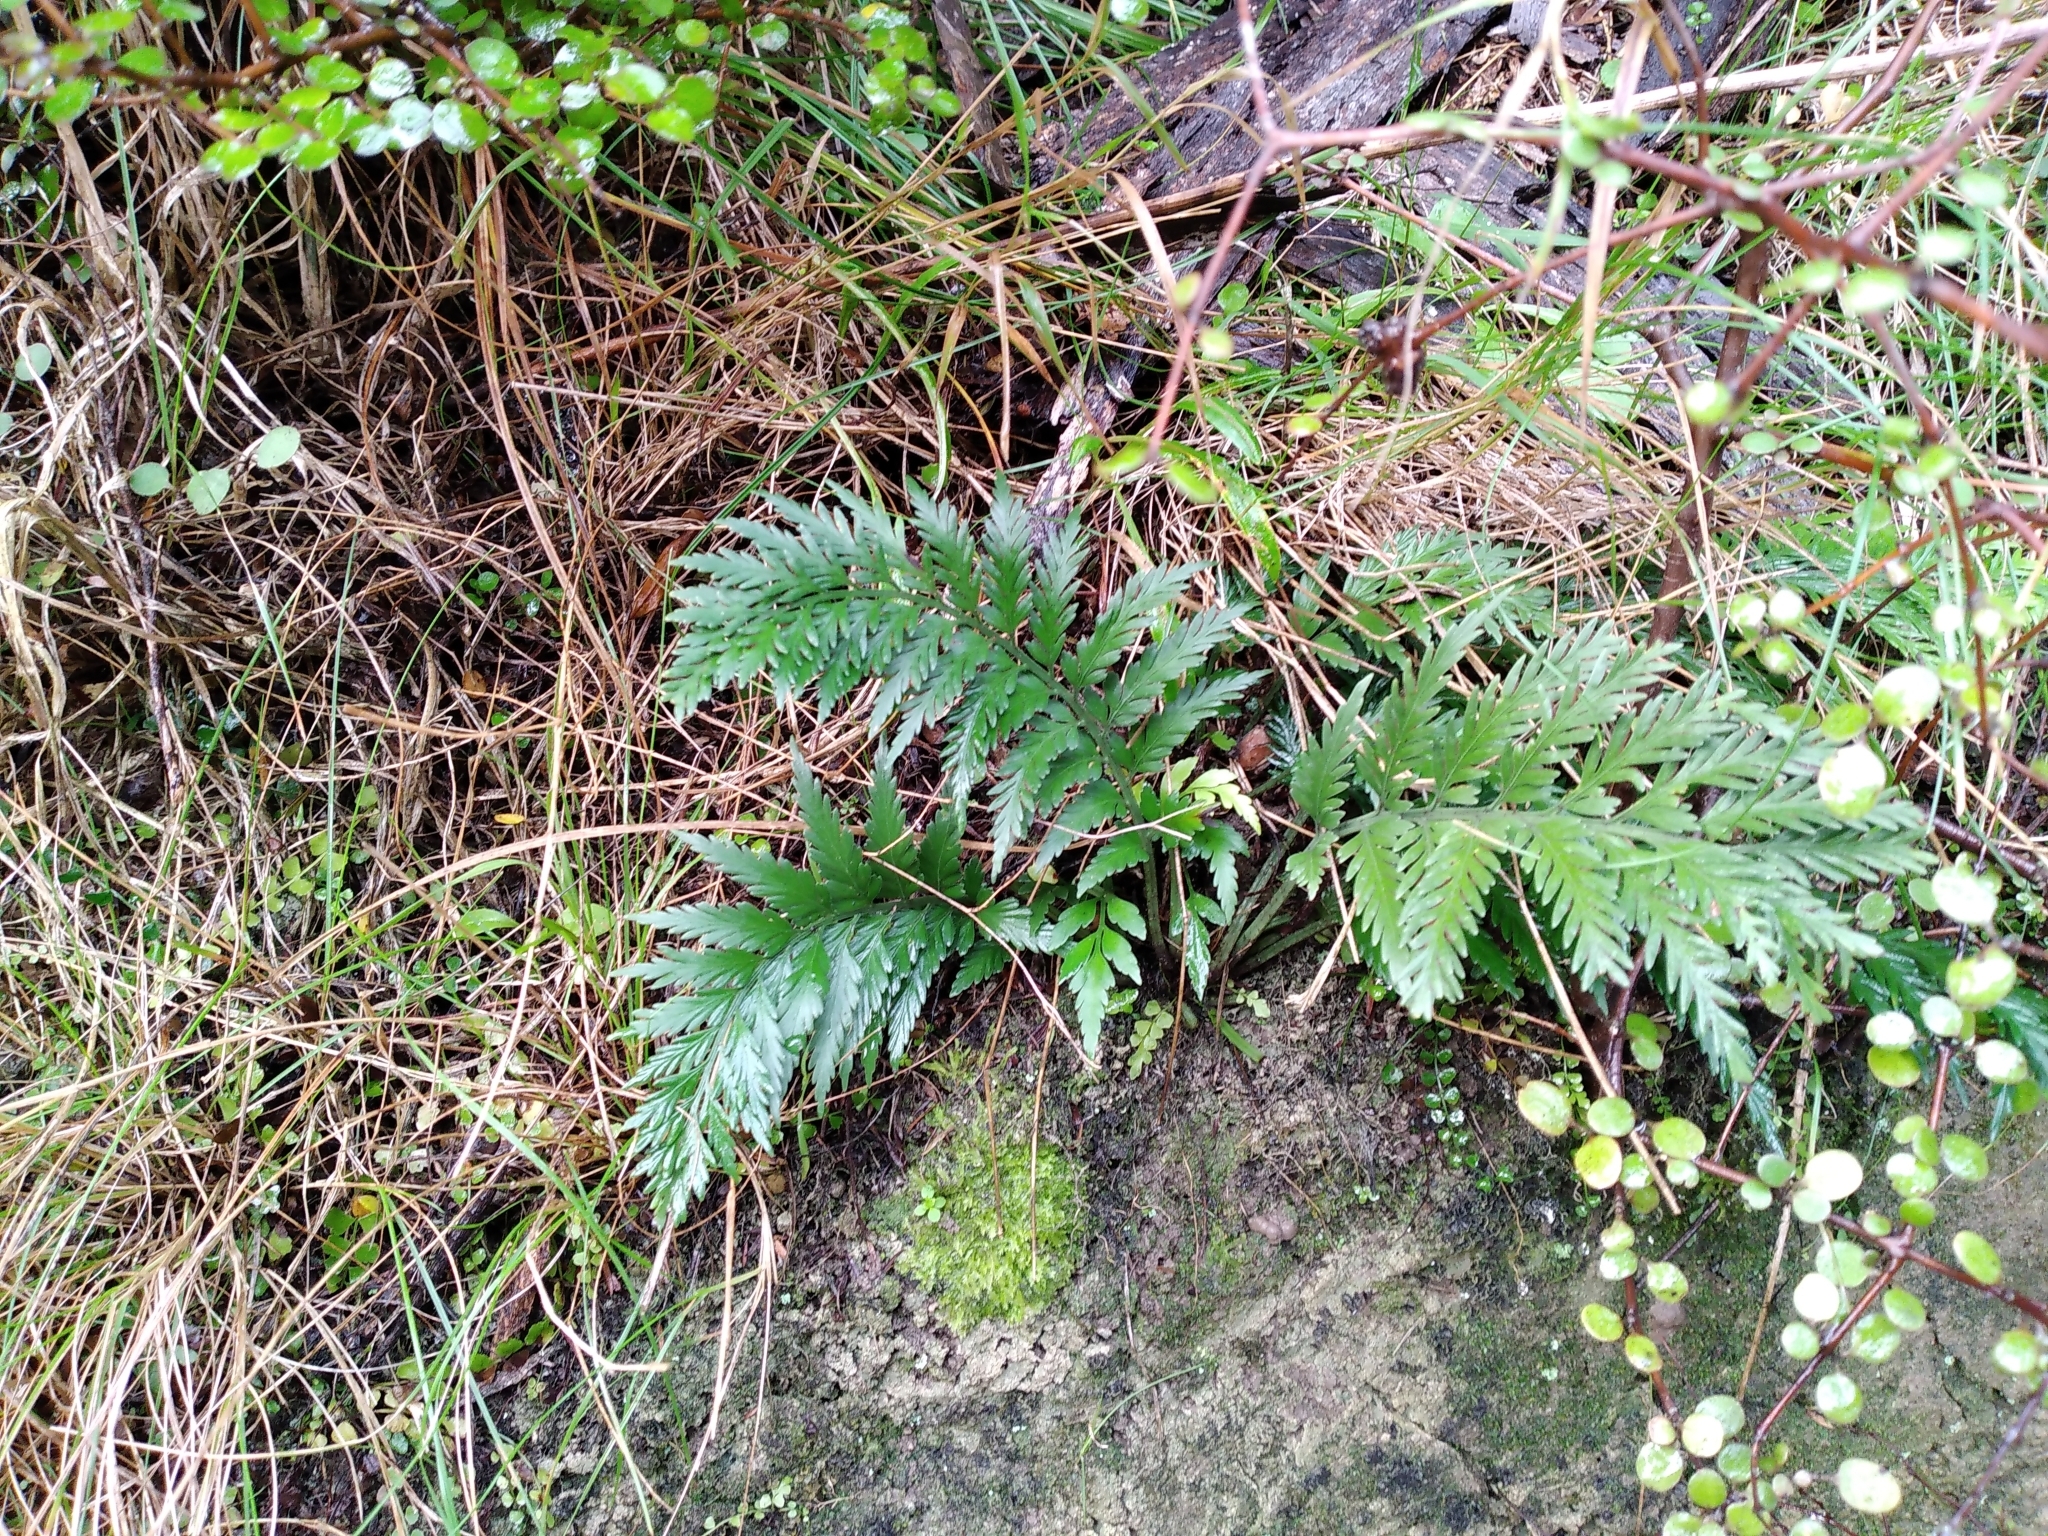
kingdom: Plantae
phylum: Tracheophyta
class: Polypodiopsida
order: Polypodiales
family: Aspleniaceae
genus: Asplenium
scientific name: Asplenium appendiculatum
